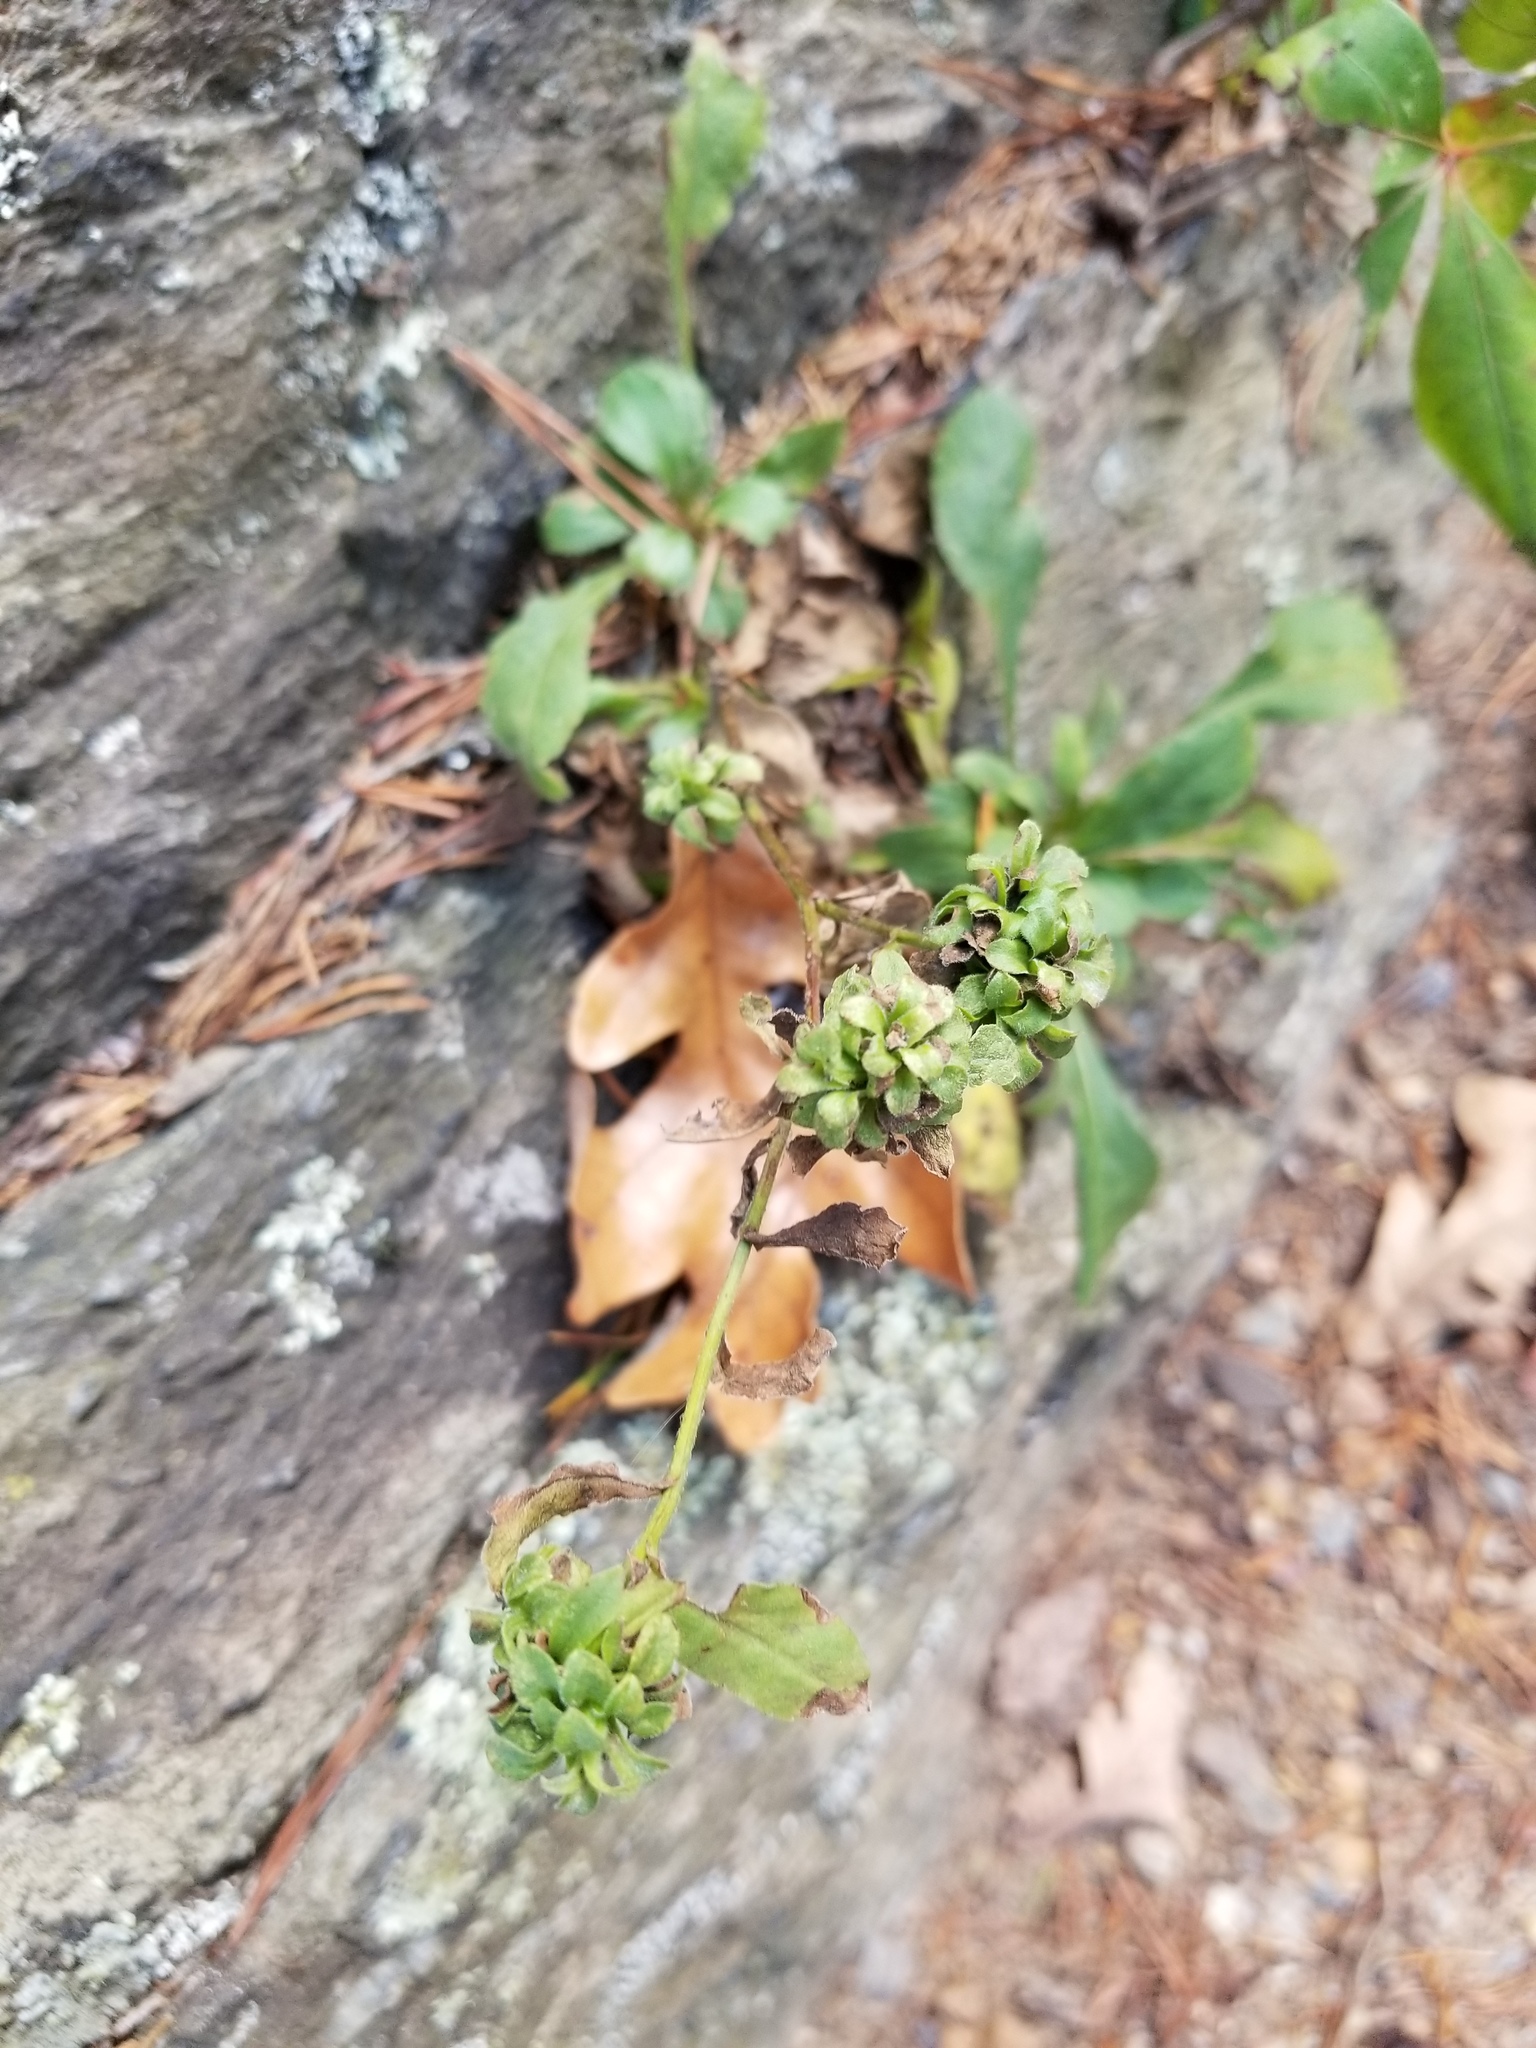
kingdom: Plantae
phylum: Tracheophyta
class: Magnoliopsida
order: Asterales
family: Asteraceae
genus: Solidago
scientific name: Solidago bicolor
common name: Silverrod
